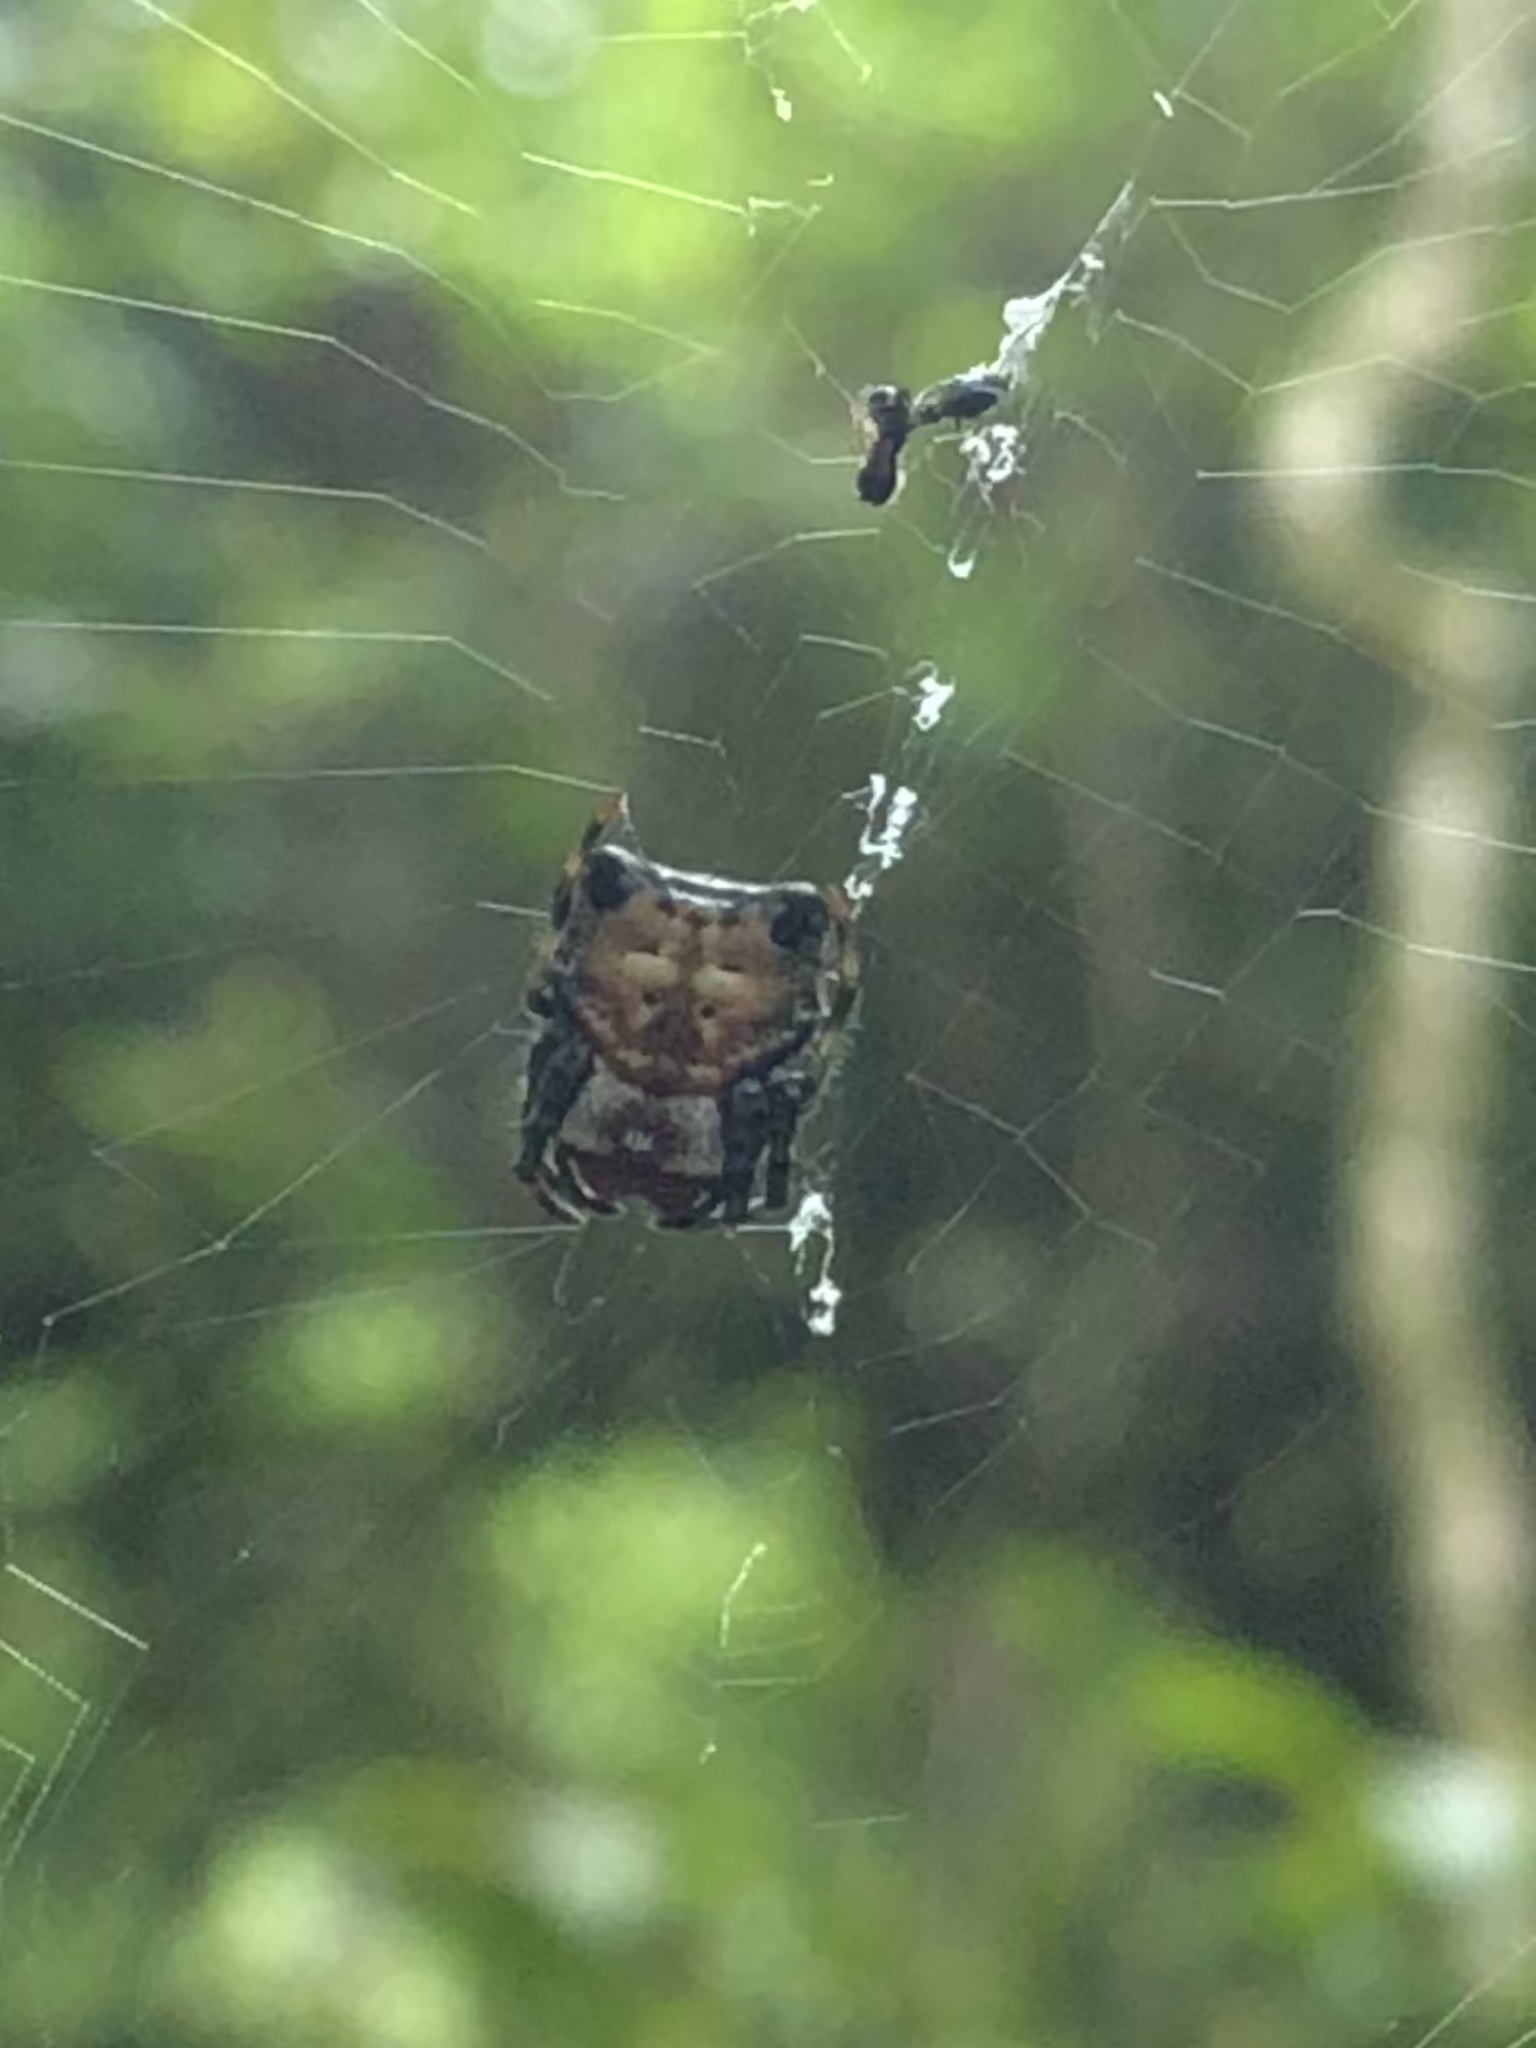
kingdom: Animalia
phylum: Arthropoda
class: Arachnida
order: Araneae
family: Araneidae
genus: Aspidolasius
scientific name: Aspidolasius branicki
